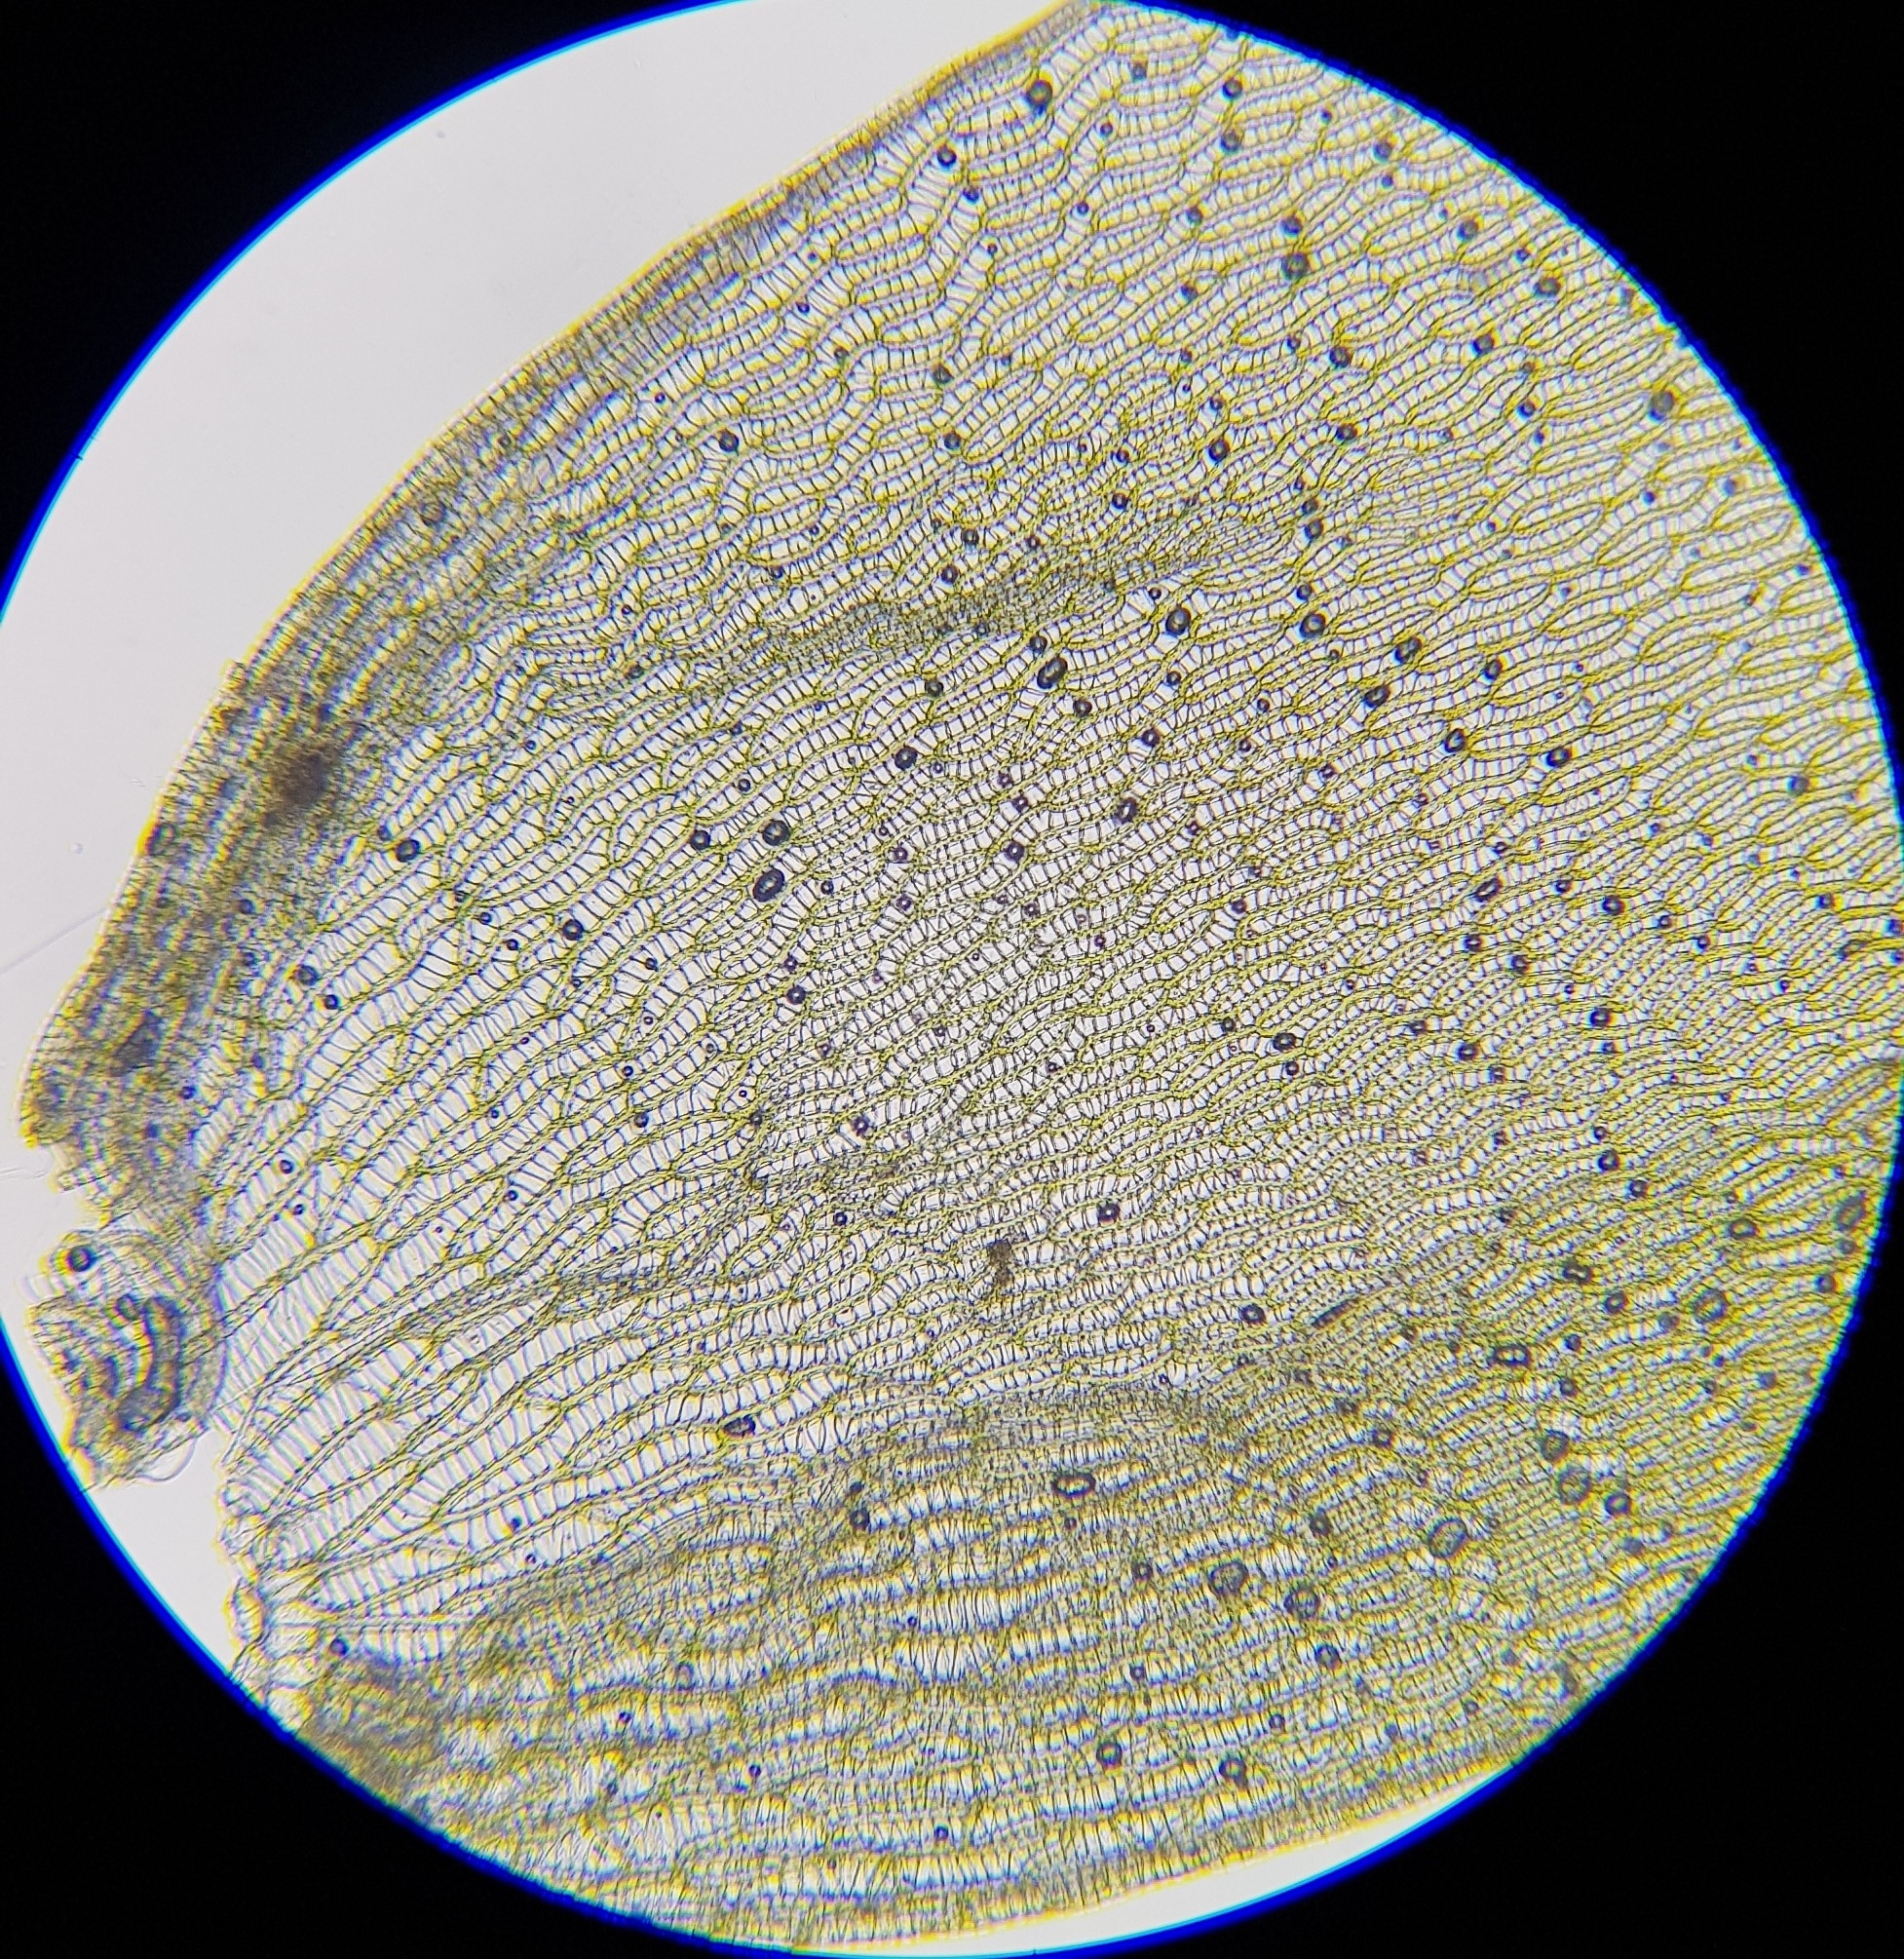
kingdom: Plantae
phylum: Bryophyta
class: Sphagnopsida
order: Sphagnales
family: Sphagnaceae
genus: Sphagnum
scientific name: Sphagnum denticulatum
